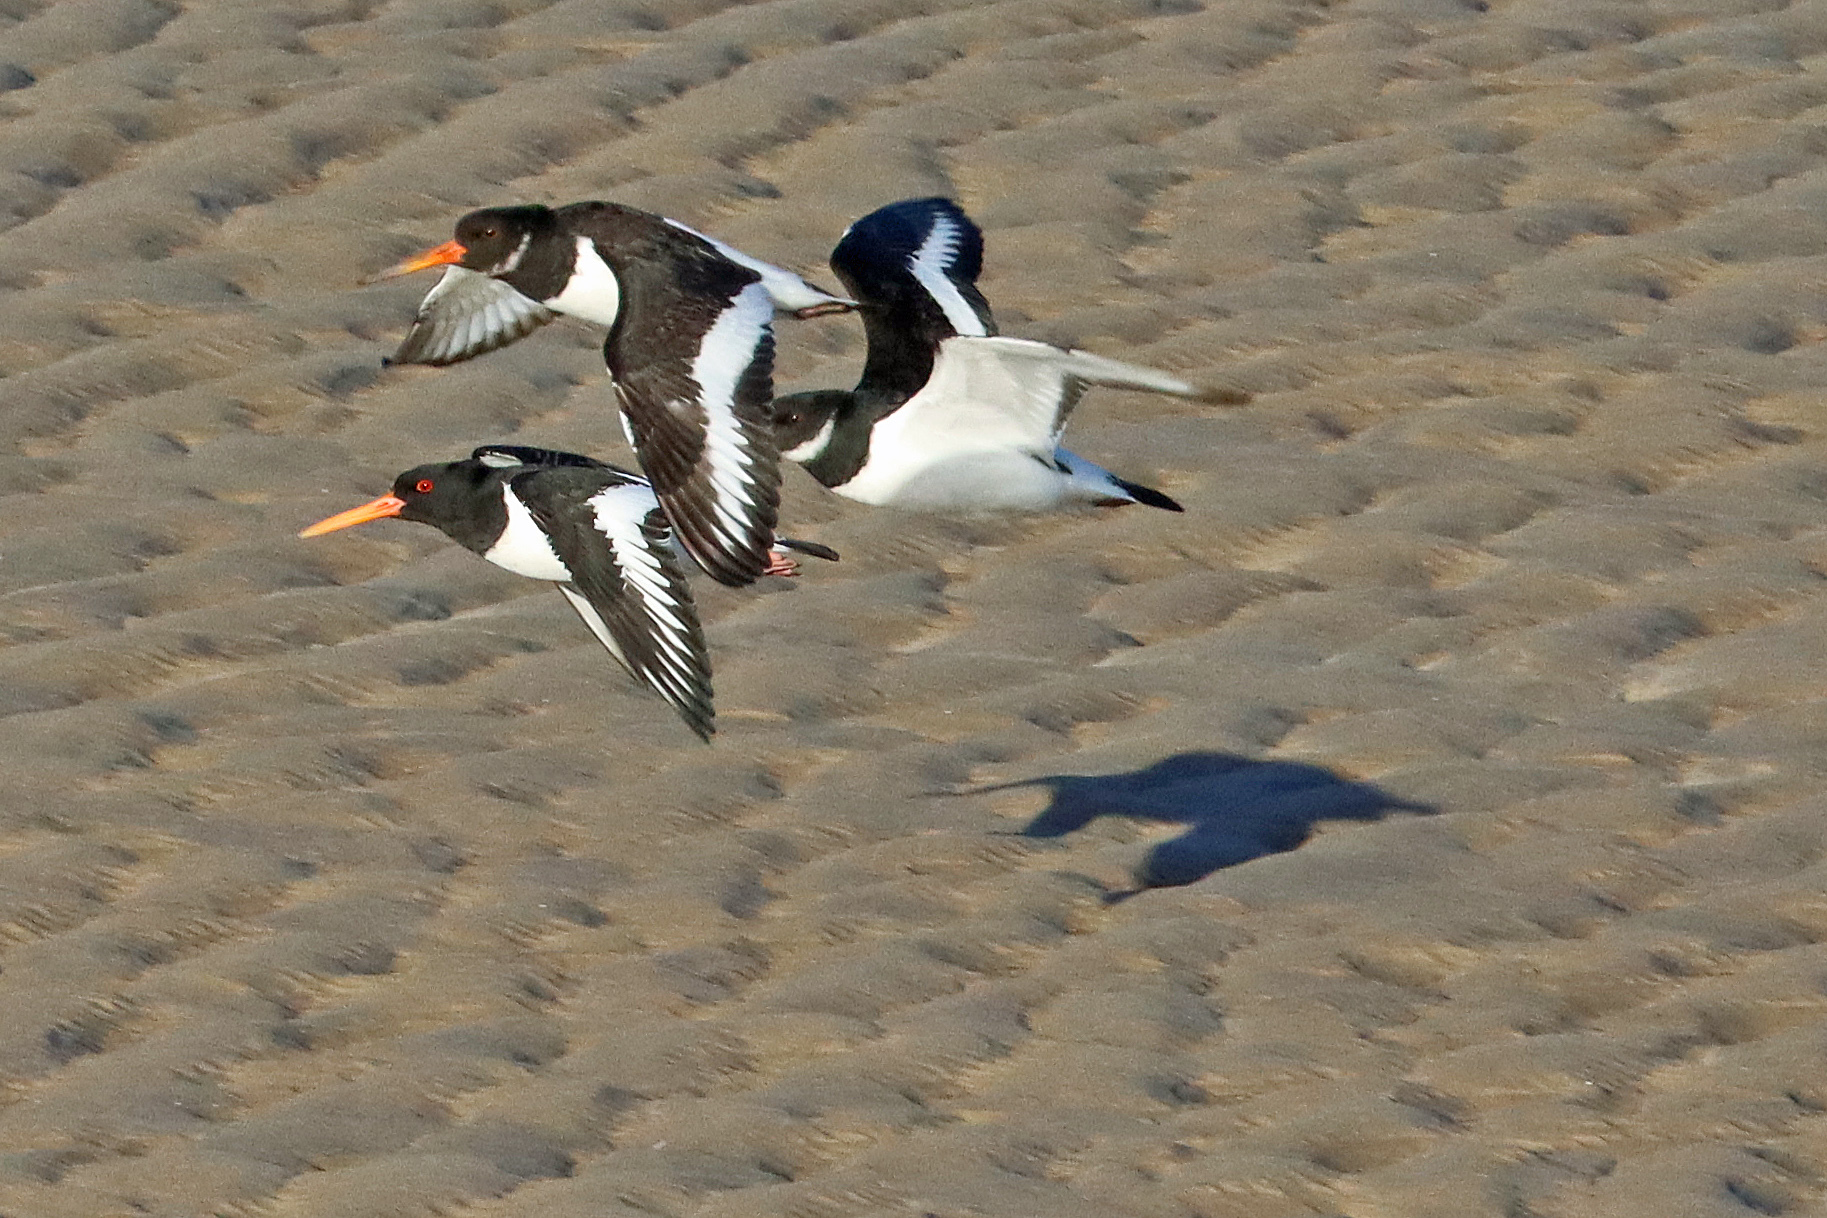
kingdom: Animalia
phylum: Chordata
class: Aves
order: Charadriiformes
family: Haematopodidae
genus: Haematopus
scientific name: Haematopus ostralegus
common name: Eurasian oystercatcher
